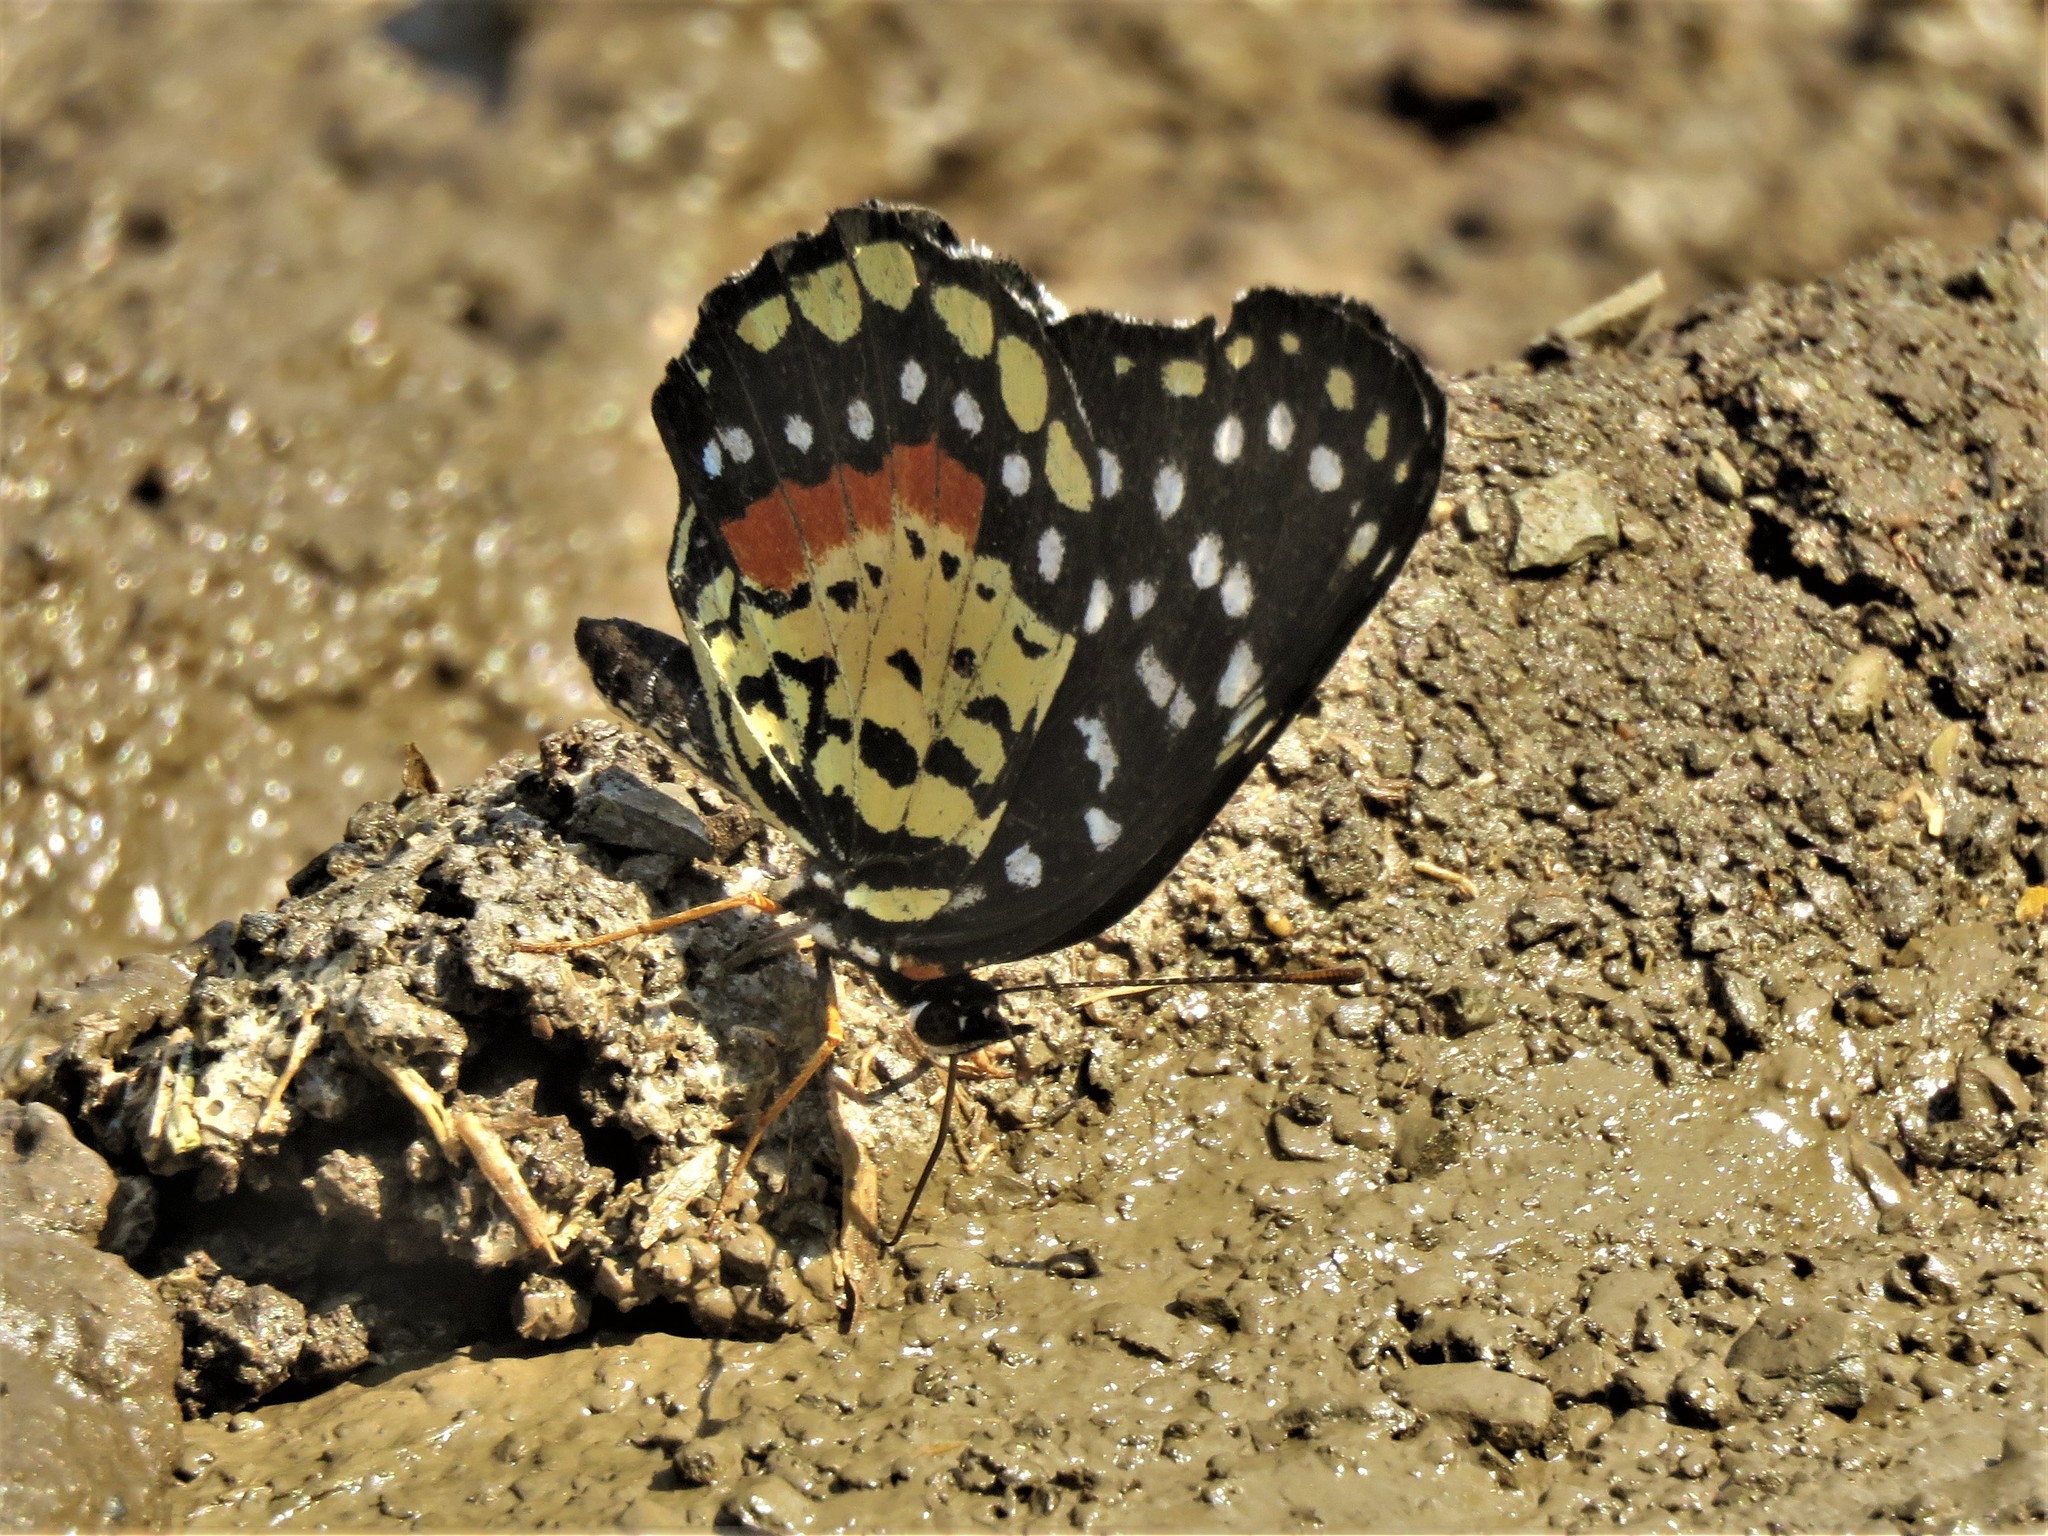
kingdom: Animalia
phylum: Arthropoda
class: Insecta
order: Lepidoptera
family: Nymphalidae
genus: Chlosyne
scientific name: Chlosyne janais
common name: Crimson patch
